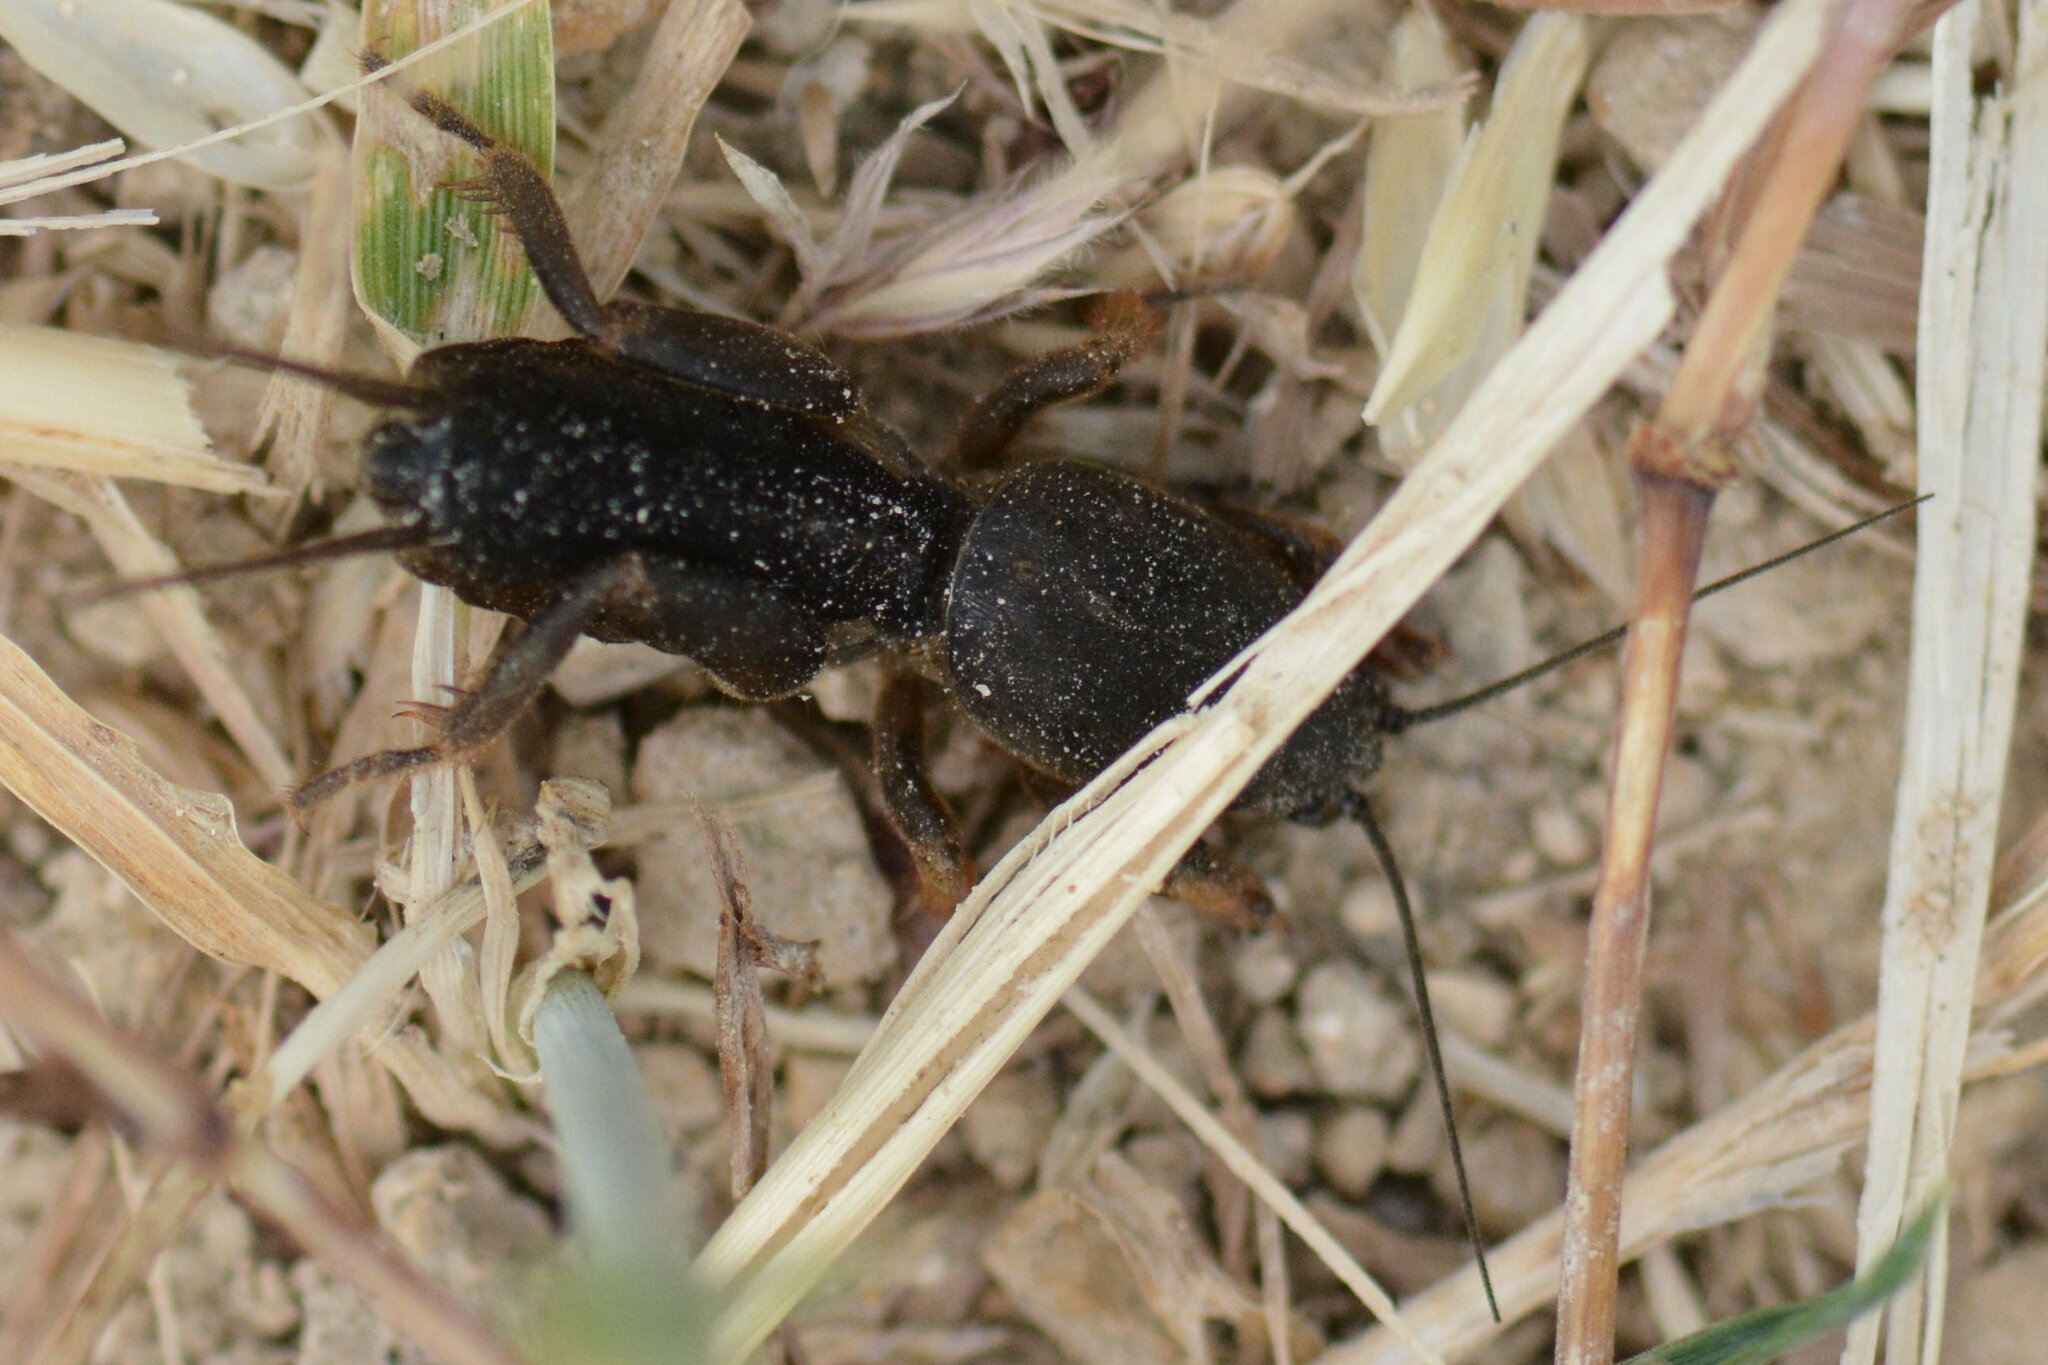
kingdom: Animalia
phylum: Arthropoda
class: Insecta
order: Orthoptera
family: Gryllotalpidae
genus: Gryllotalpa
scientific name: Gryllotalpa gryllotalpa
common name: European mole cricket
